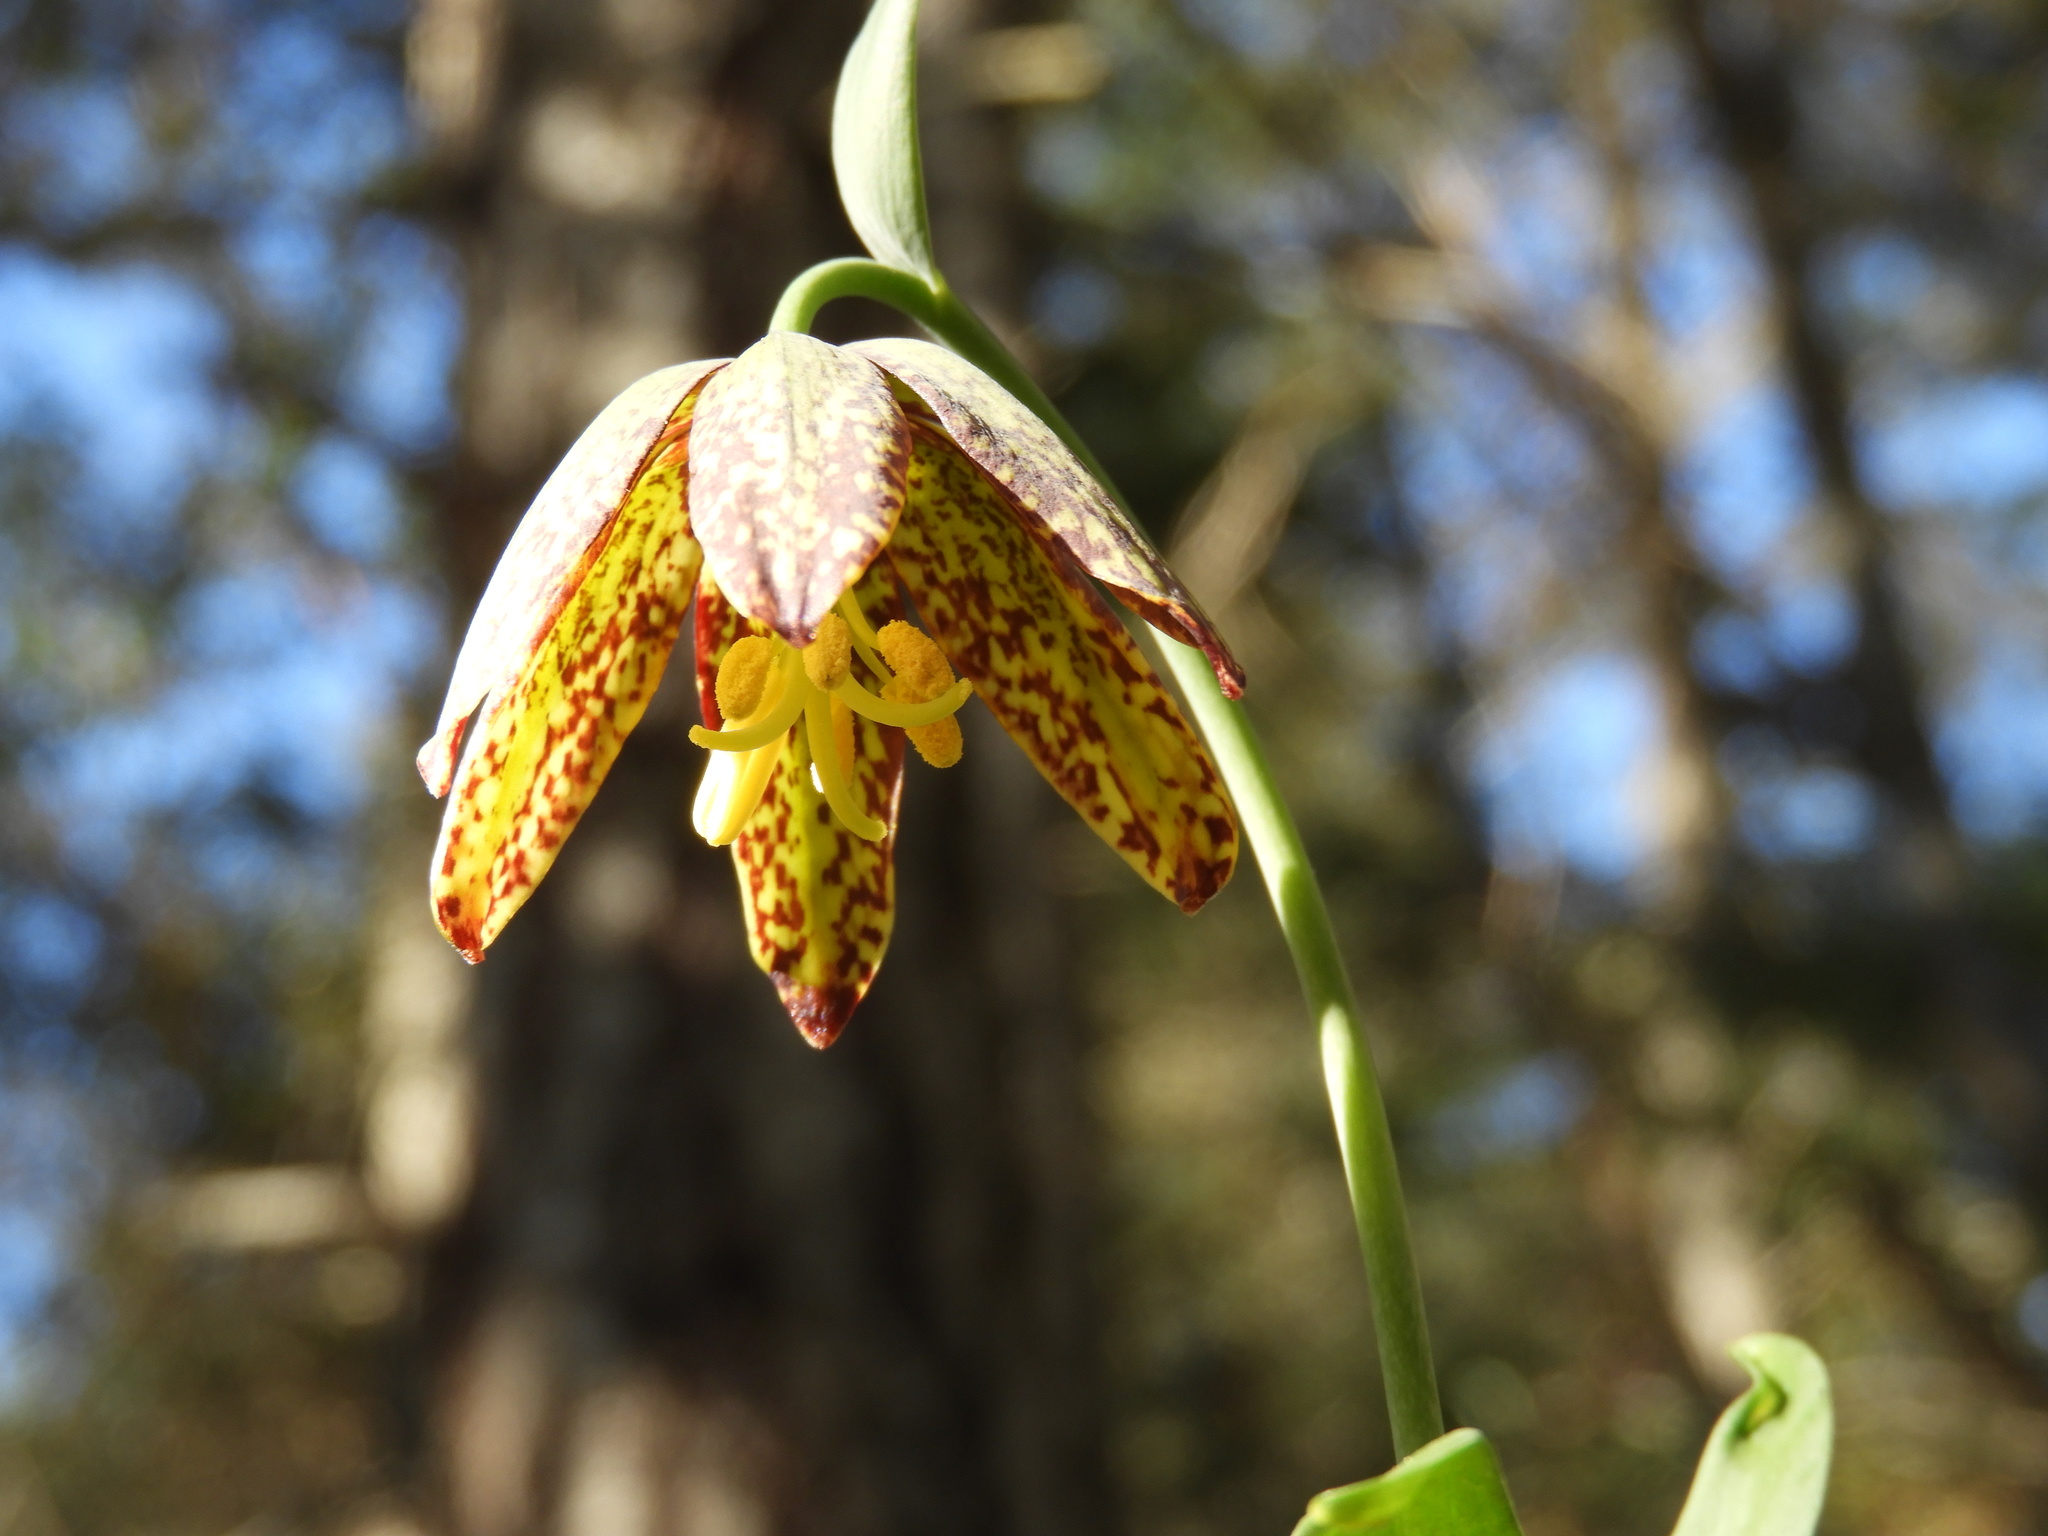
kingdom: Plantae
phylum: Tracheophyta
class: Liliopsida
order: Liliales
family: Liliaceae
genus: Fritillaria
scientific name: Fritillaria affinis
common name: Ojai fritillary
